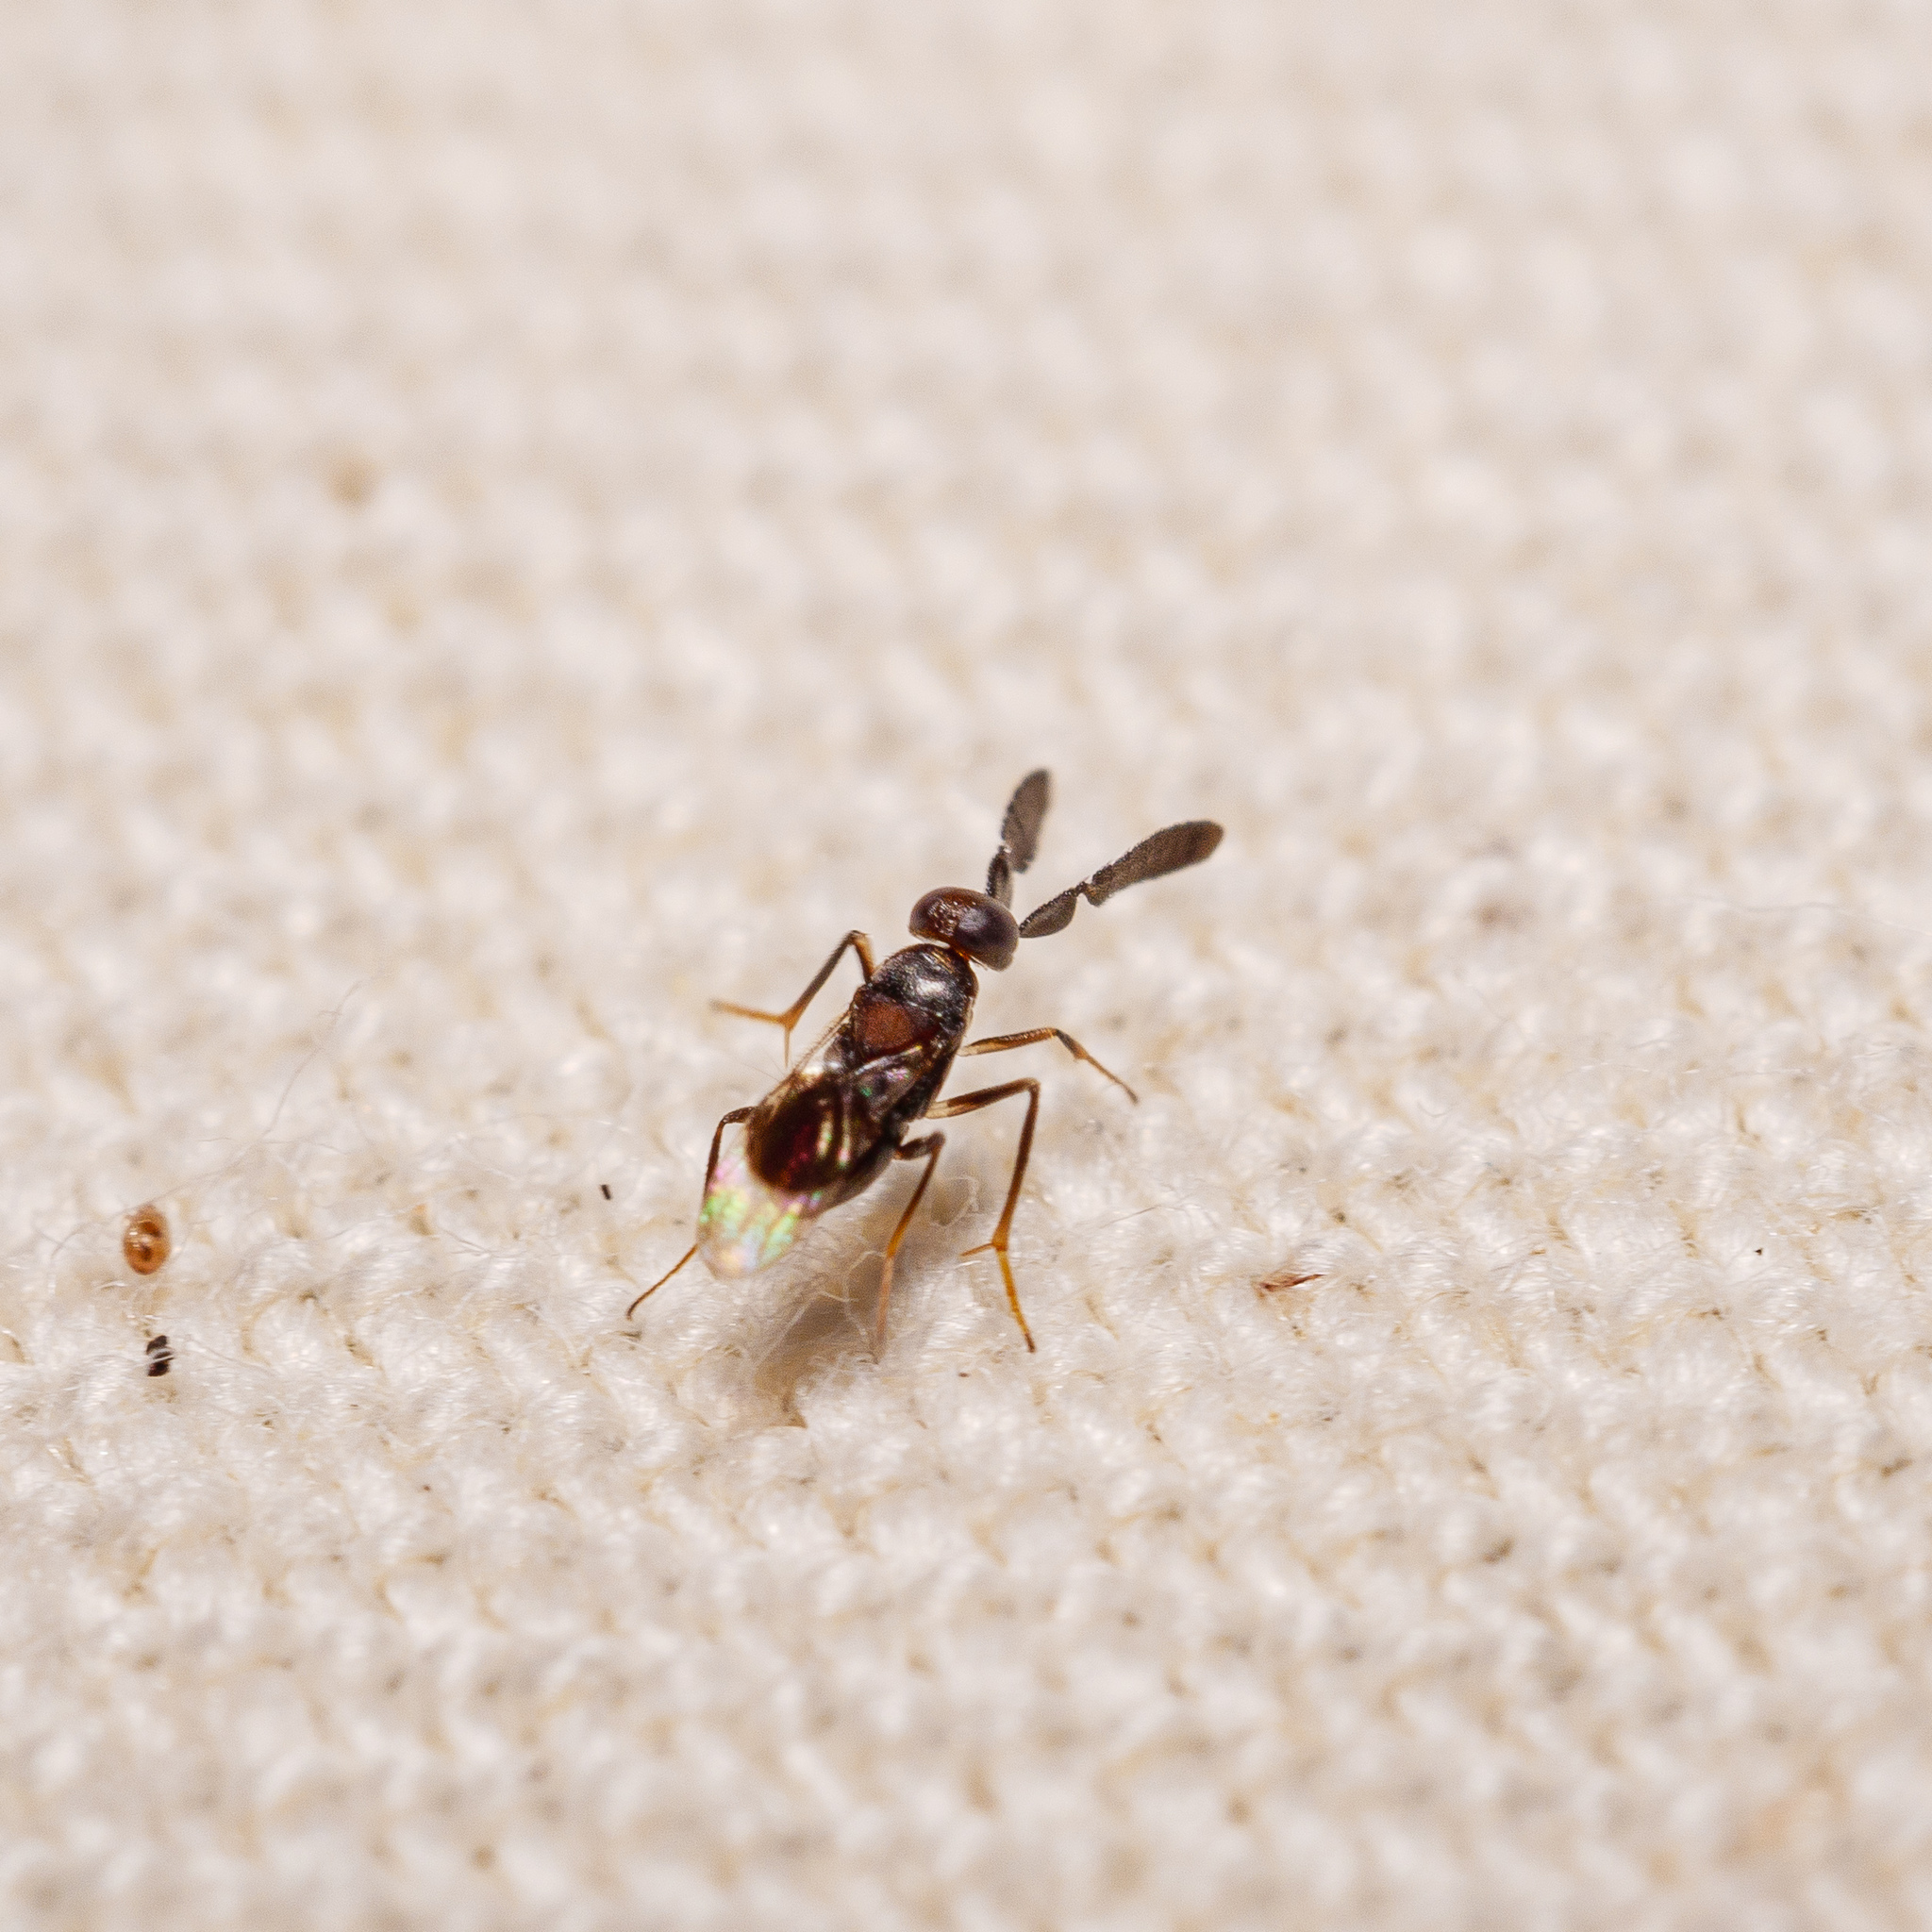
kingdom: Animalia
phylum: Arthropoda
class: Insecta
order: Hymenoptera
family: Encyrtidae
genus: Cryptanusia
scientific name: Cryptanusia aureiscutellum
